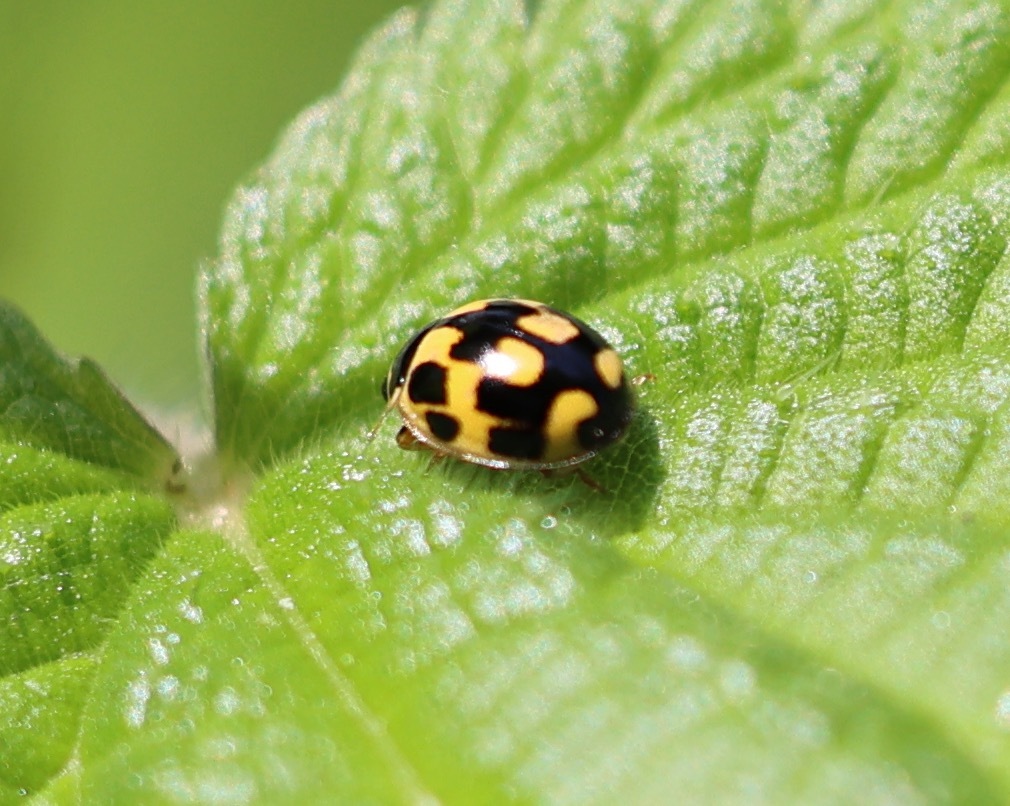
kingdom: Animalia
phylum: Arthropoda
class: Insecta
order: Coleoptera
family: Coccinellidae
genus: Propylaea
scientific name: Propylaea quatuordecimpunctata
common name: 14-spotted ladybird beetle
